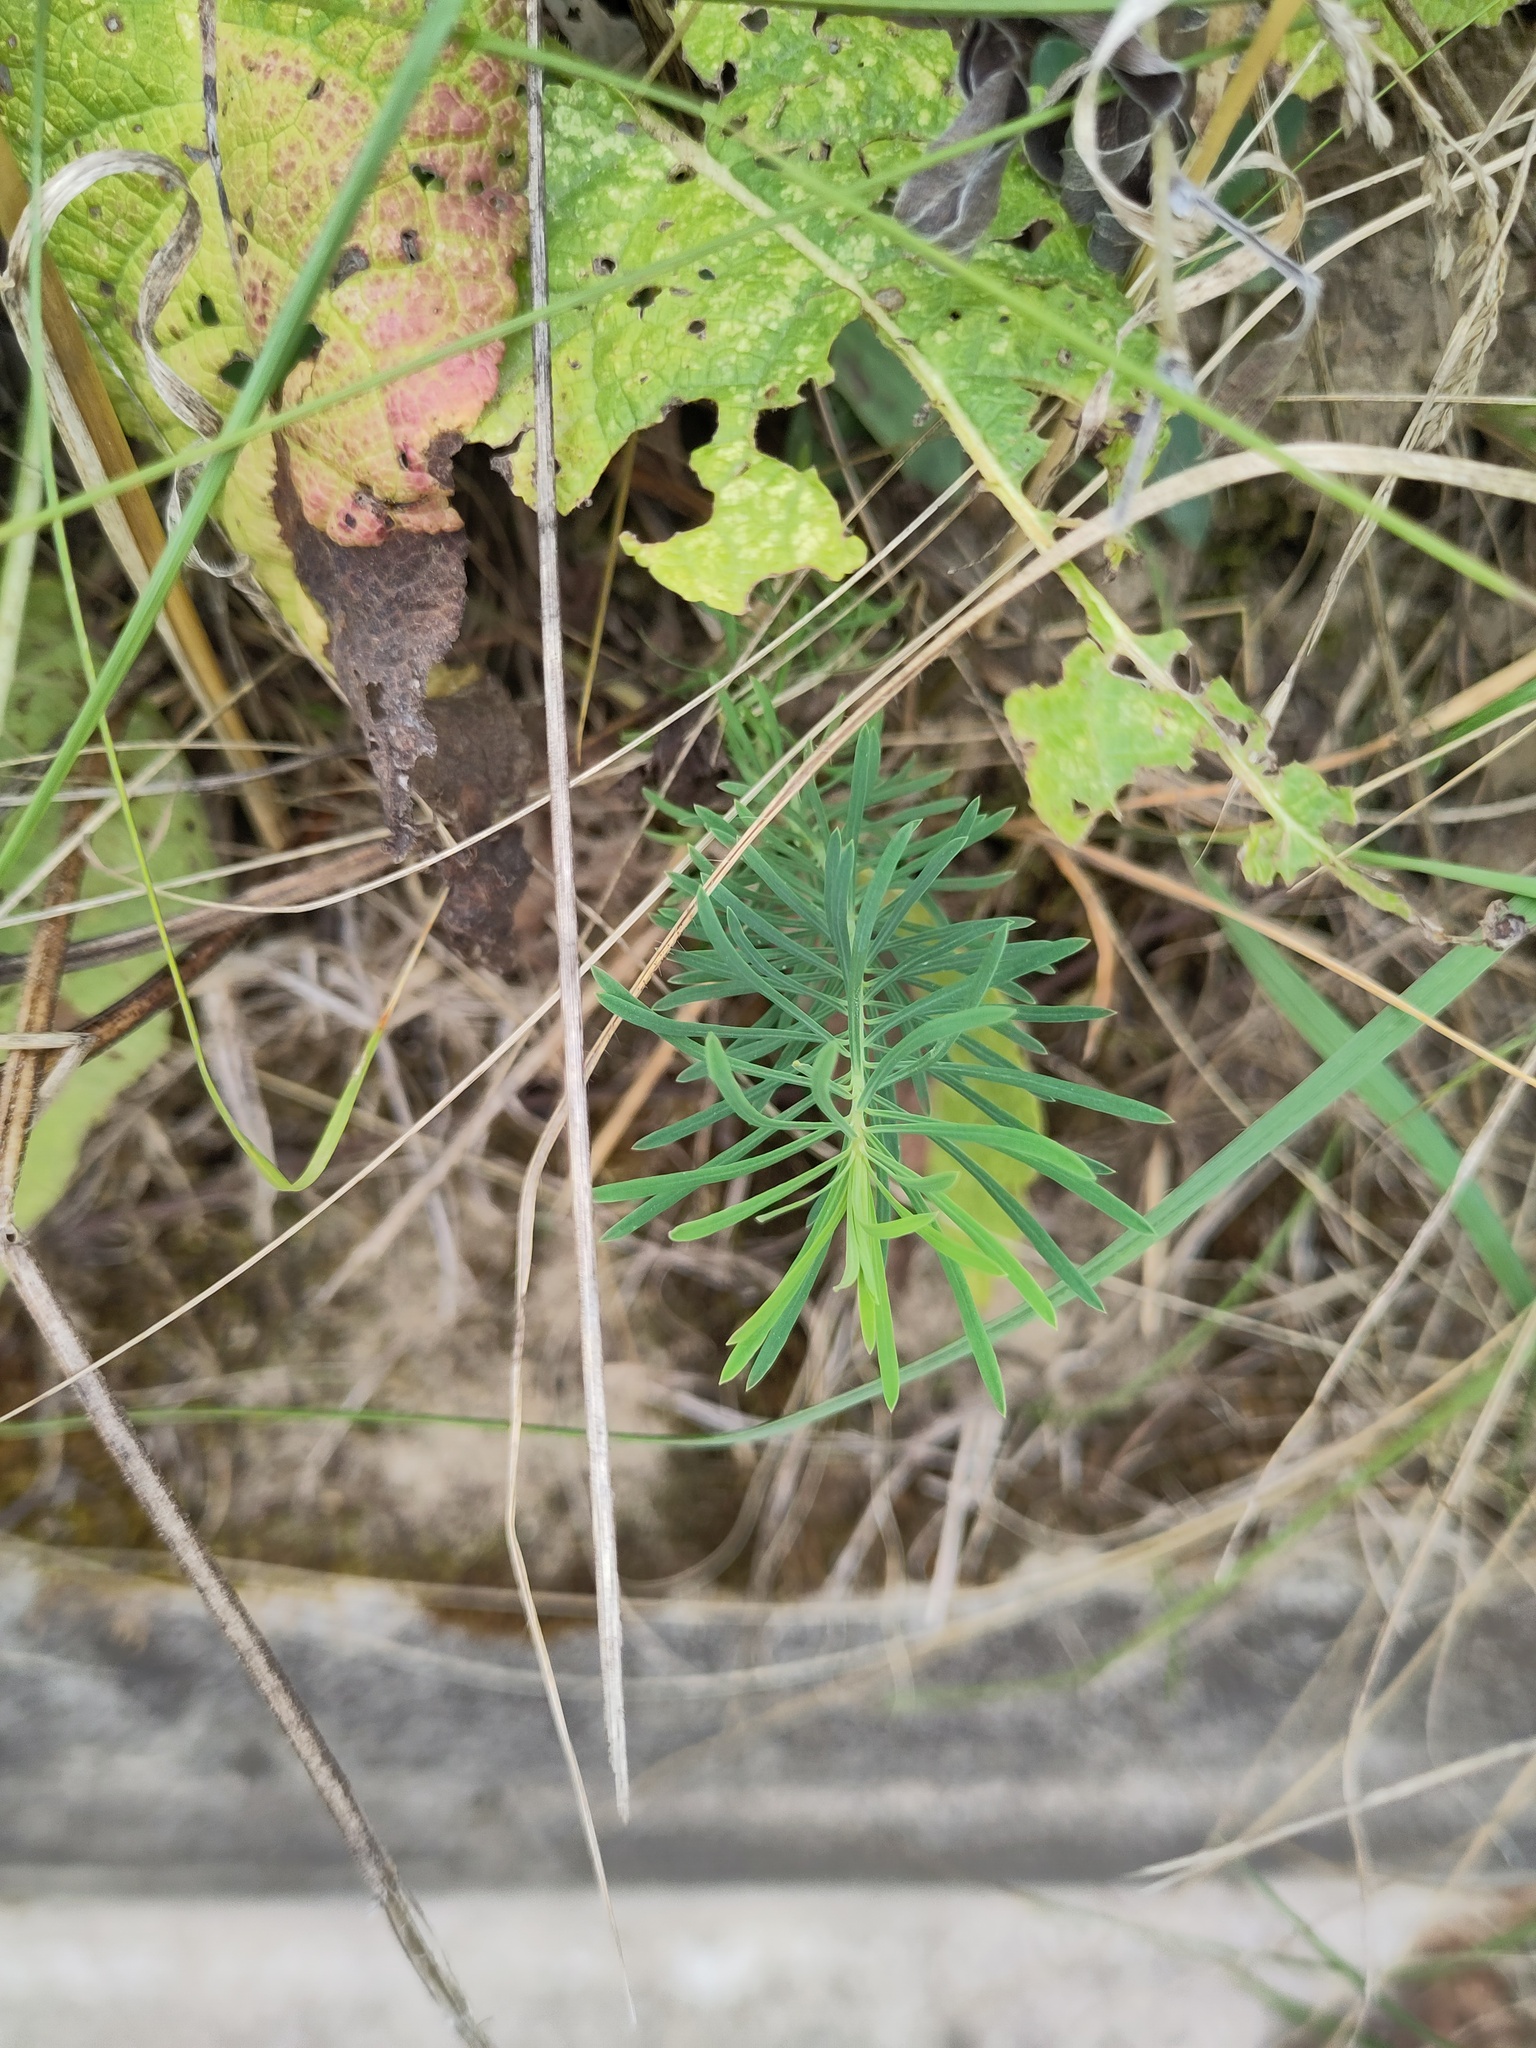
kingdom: Plantae
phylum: Tracheophyta
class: Magnoliopsida
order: Malpighiales
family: Euphorbiaceae
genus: Euphorbia
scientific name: Euphorbia cyparissias
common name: Cypress spurge
